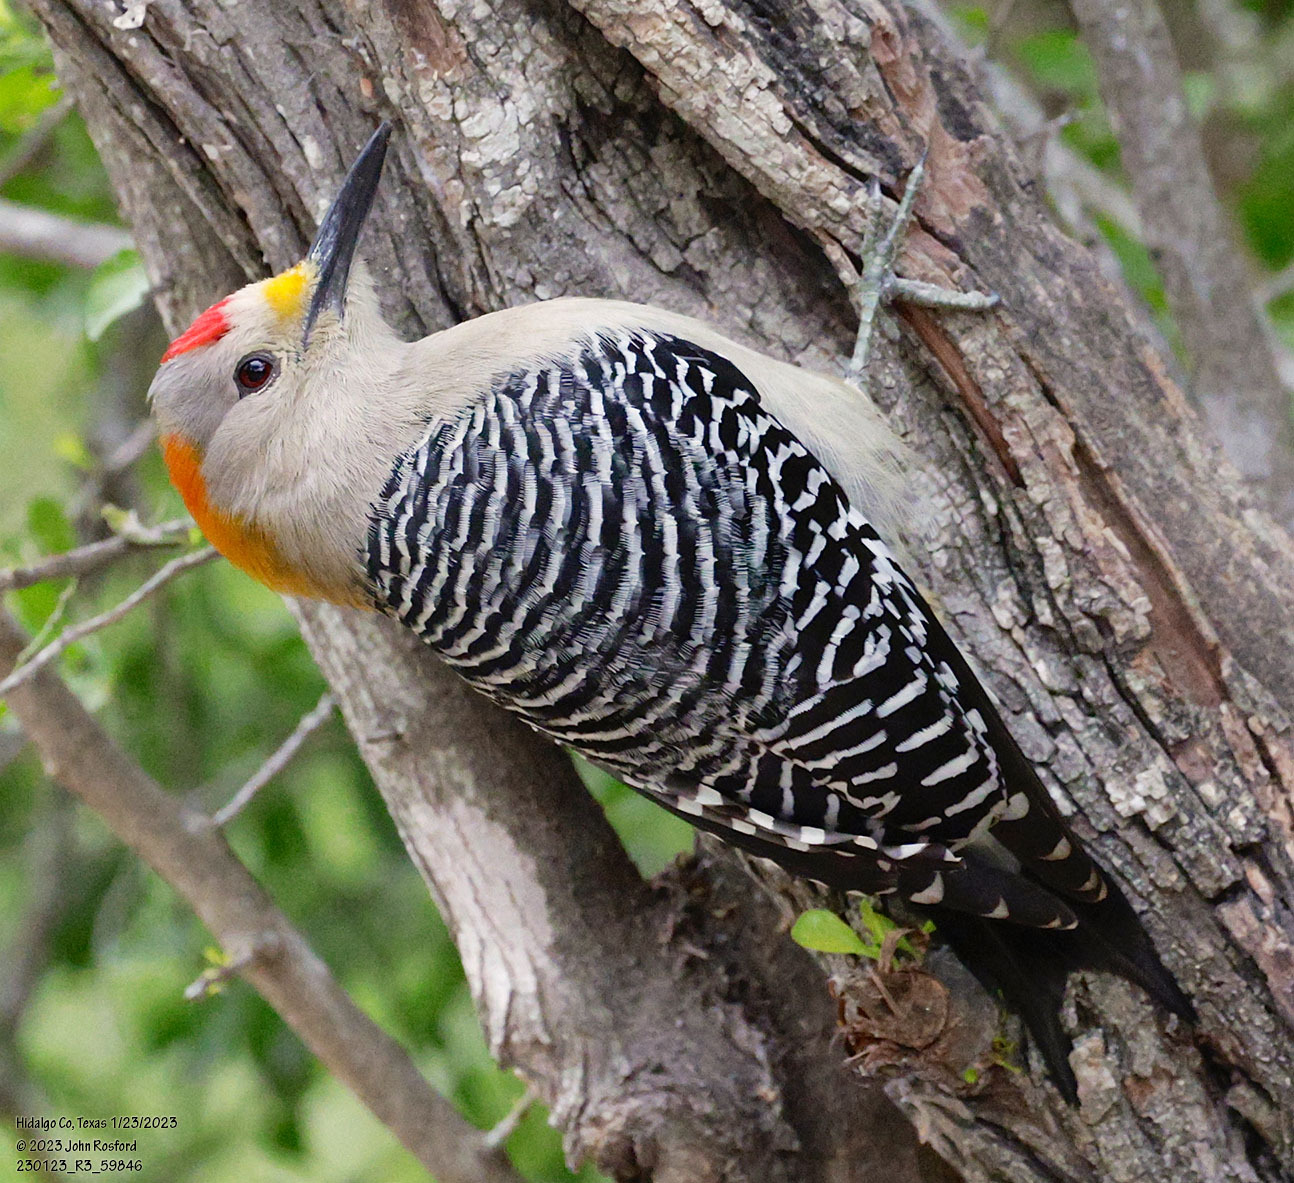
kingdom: Animalia
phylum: Chordata
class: Aves
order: Piciformes
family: Picidae
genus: Melanerpes
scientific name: Melanerpes aurifrons
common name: Golden-fronted woodpecker
